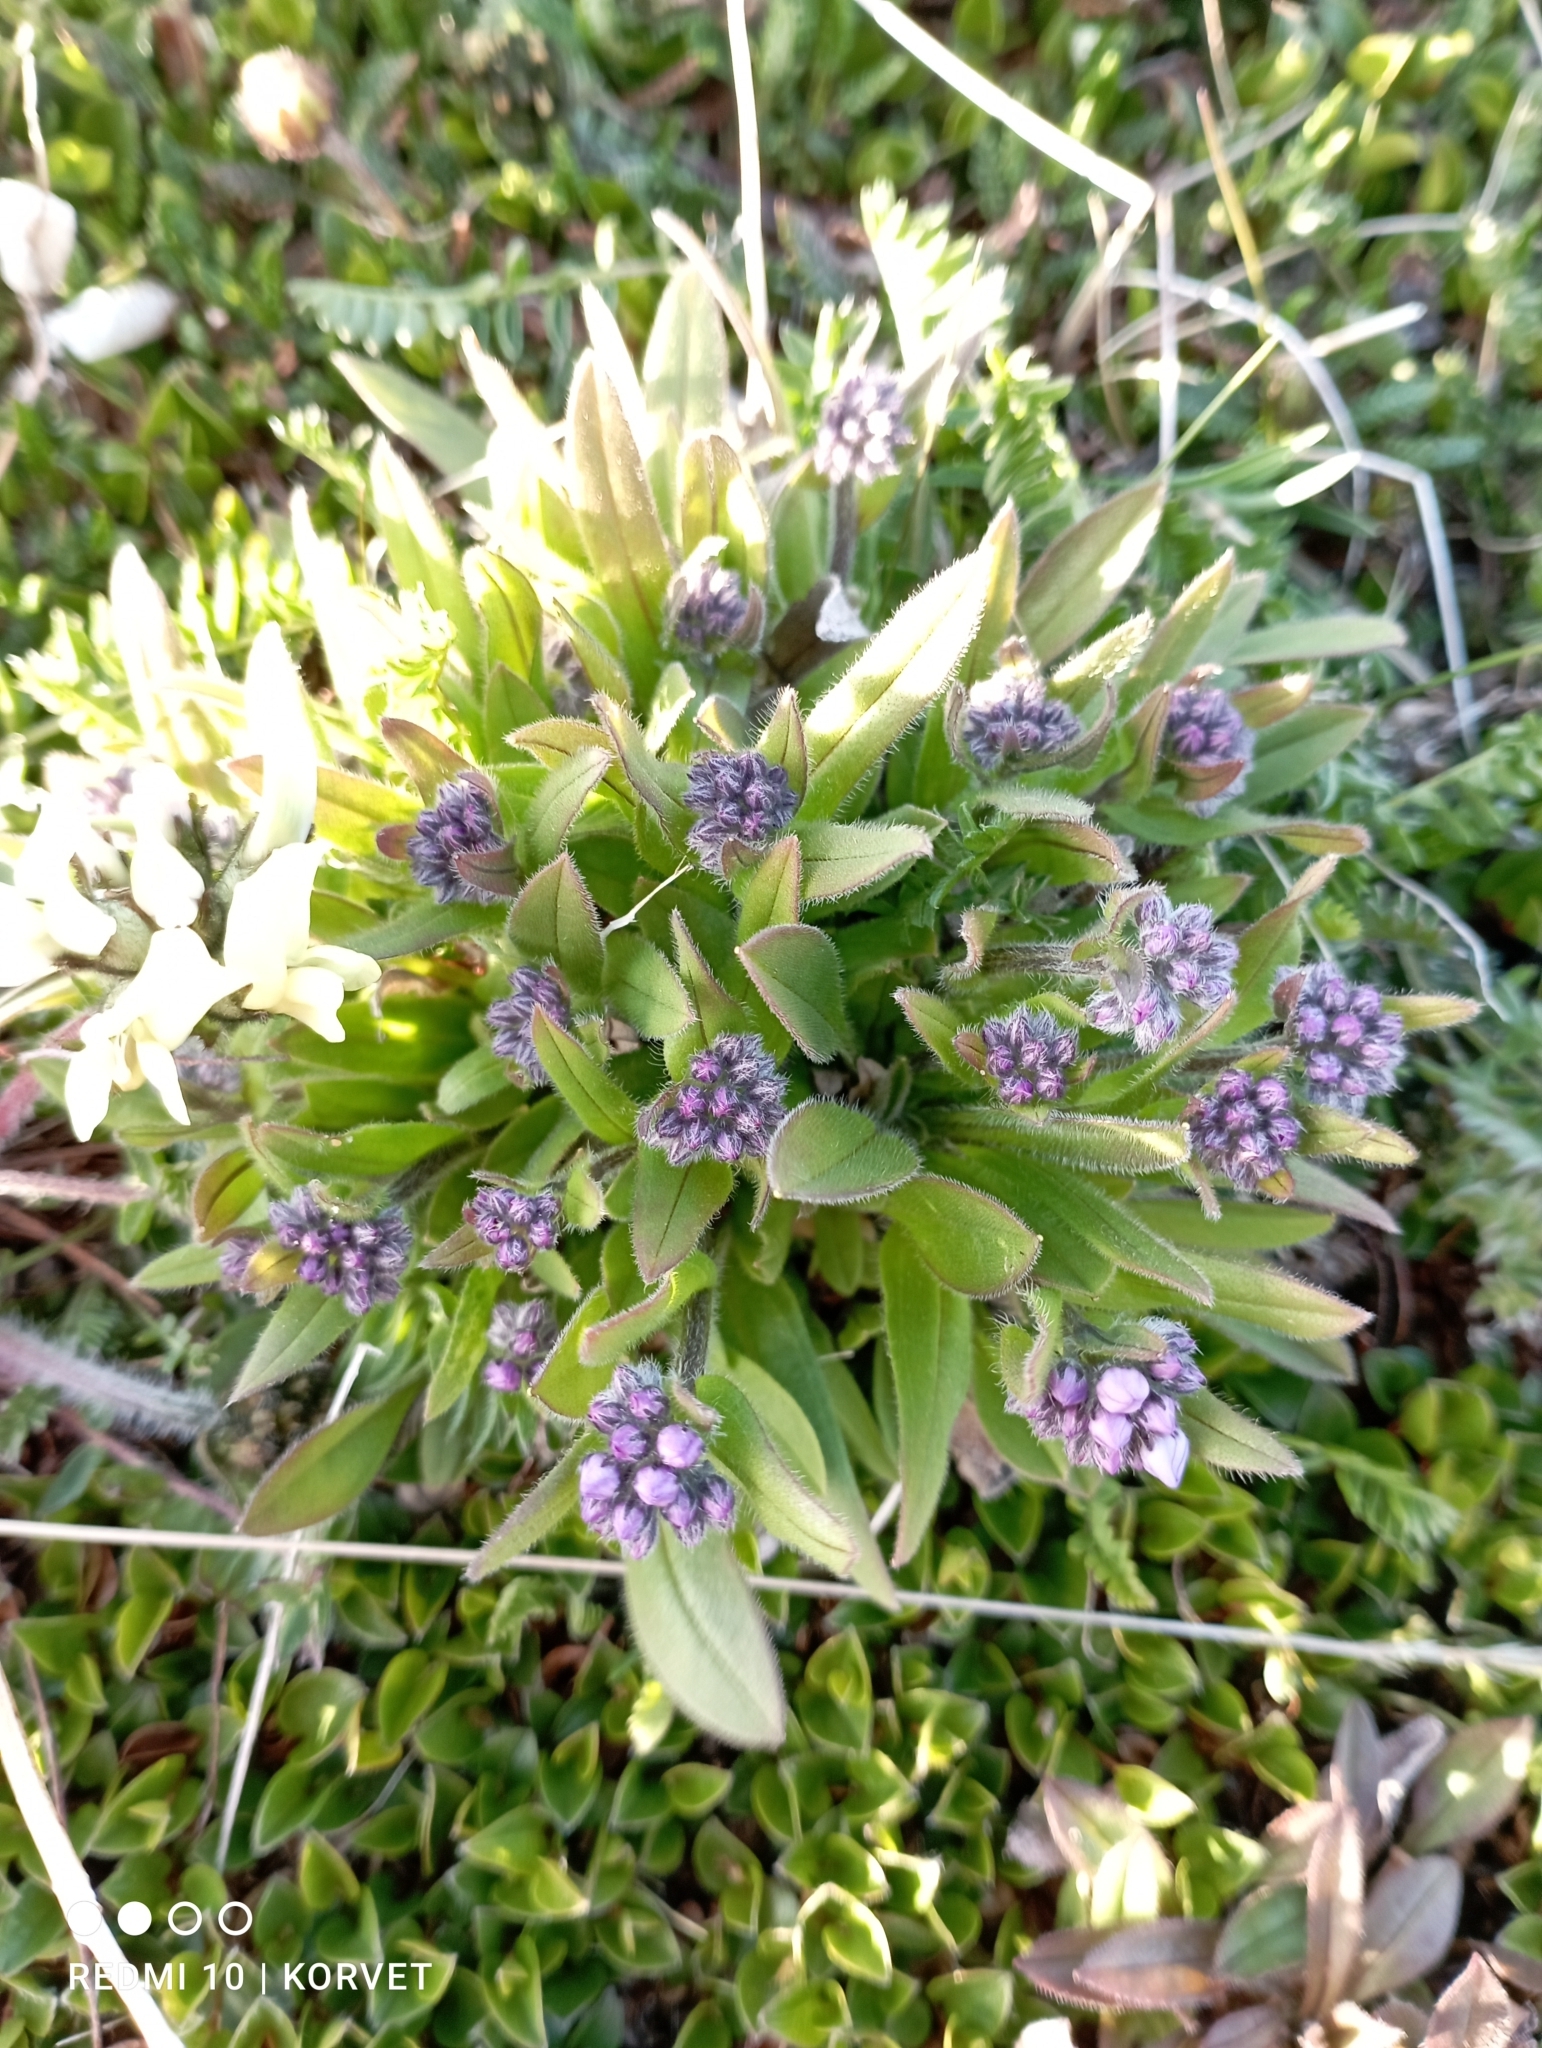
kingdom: Plantae
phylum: Tracheophyta
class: Magnoliopsida
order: Boraginales
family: Boraginaceae
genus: Myosotis
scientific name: Myosotis asiatica
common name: Asian forget-me-not
